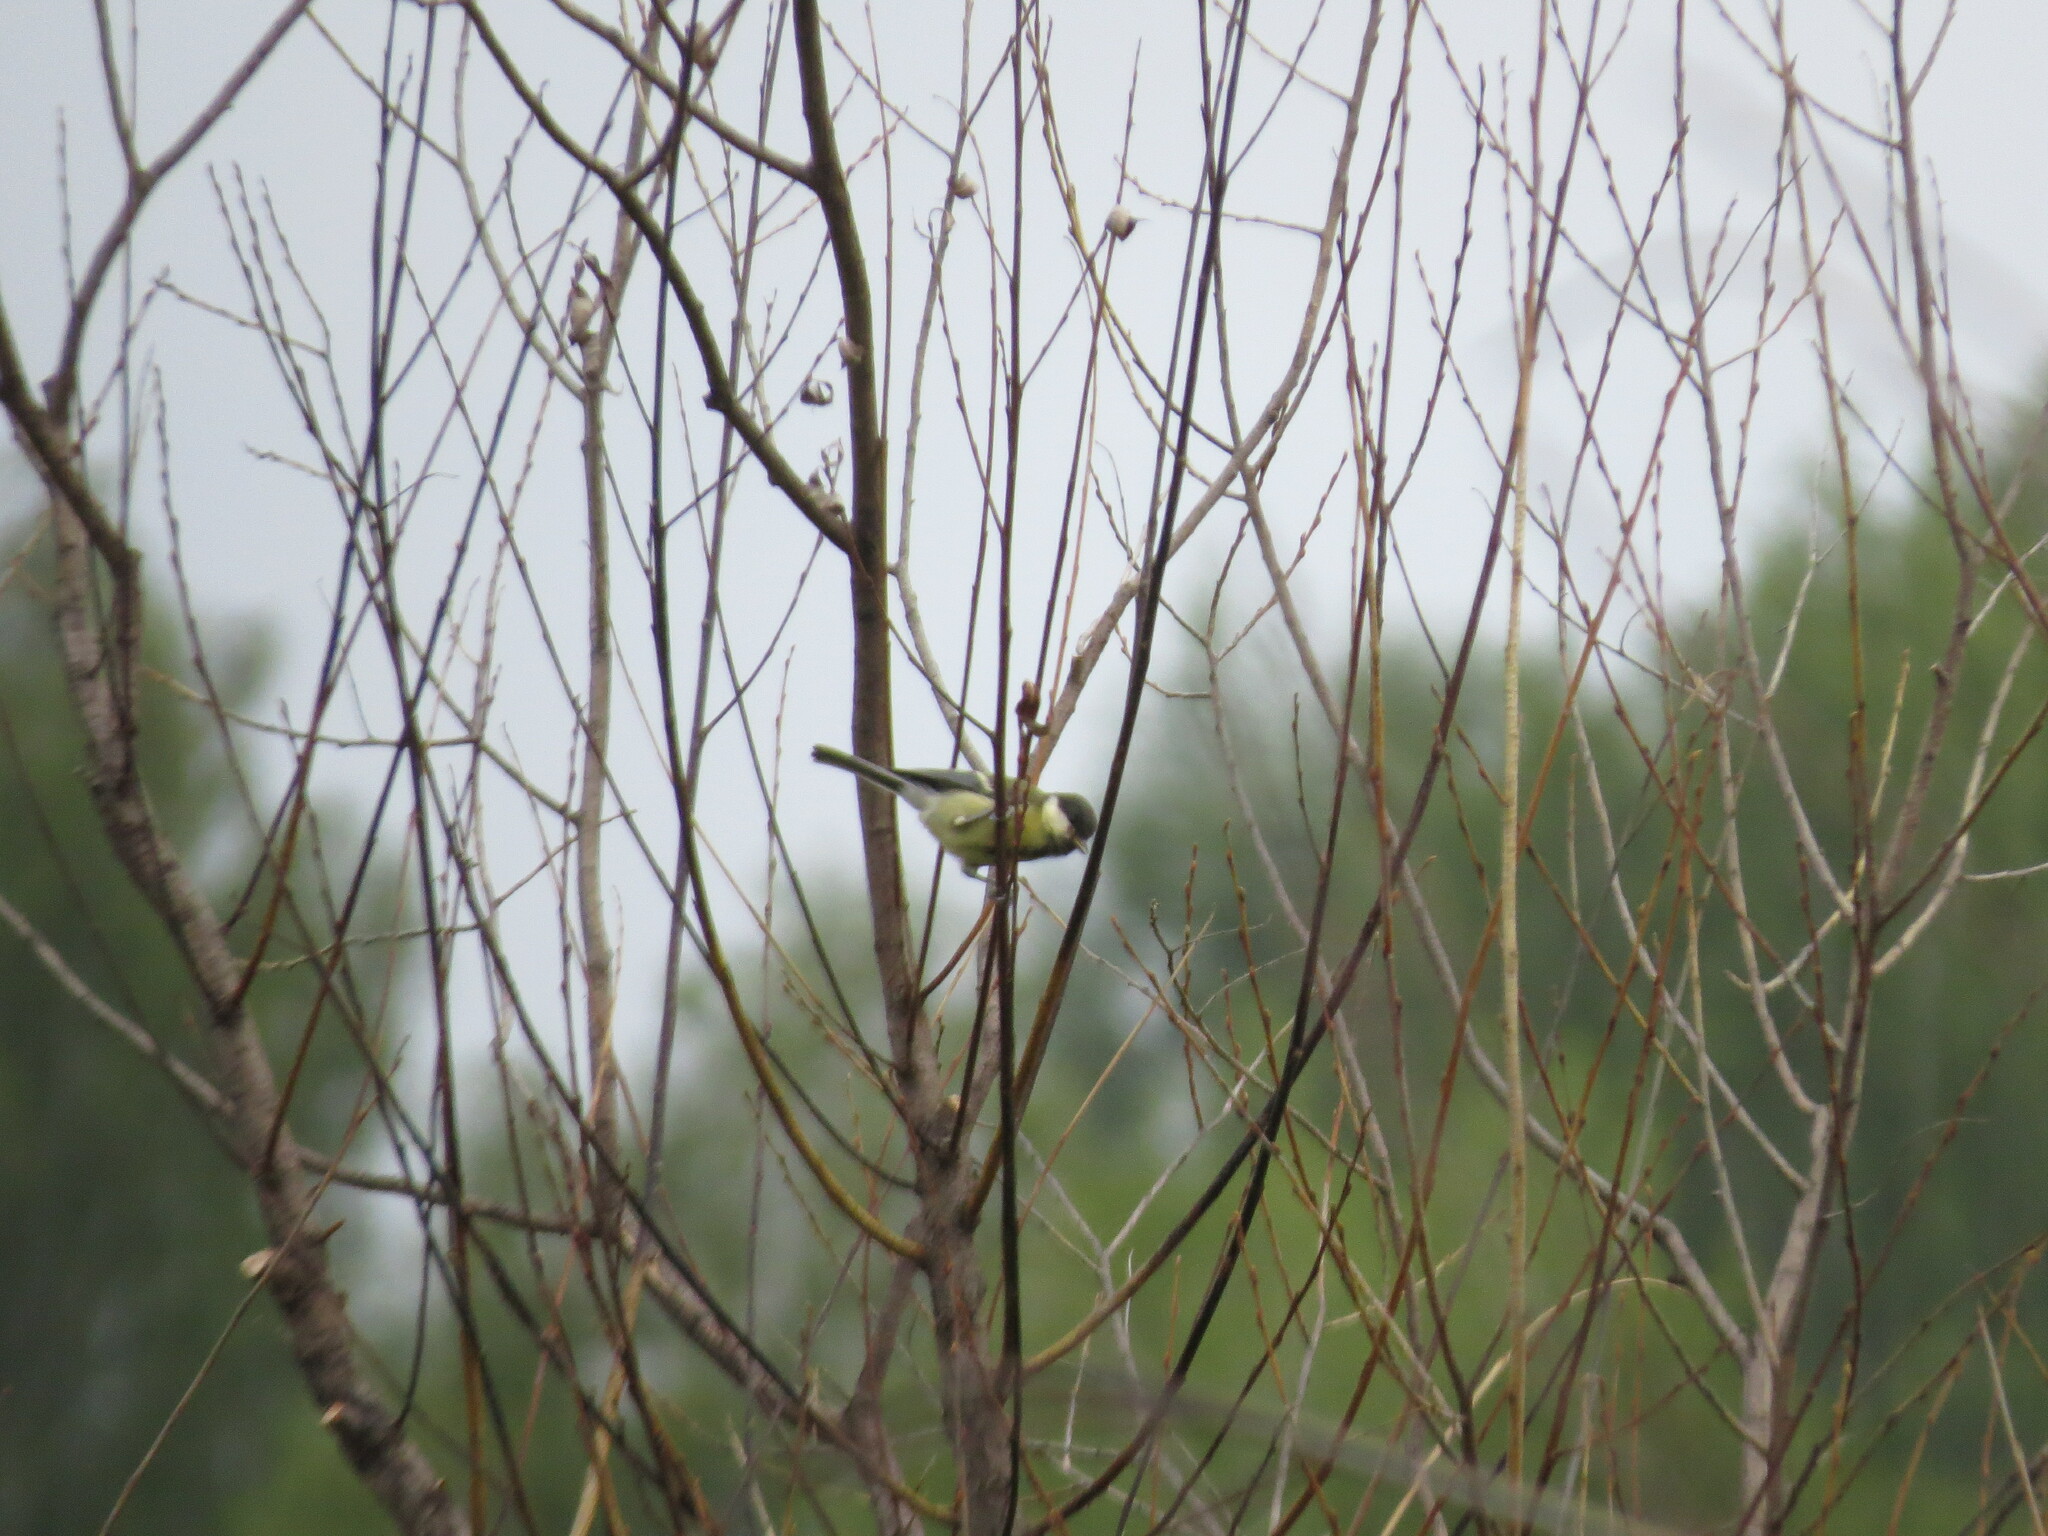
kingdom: Animalia
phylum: Chordata
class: Aves
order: Passeriformes
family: Paridae
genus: Parus
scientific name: Parus major
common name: Great tit
